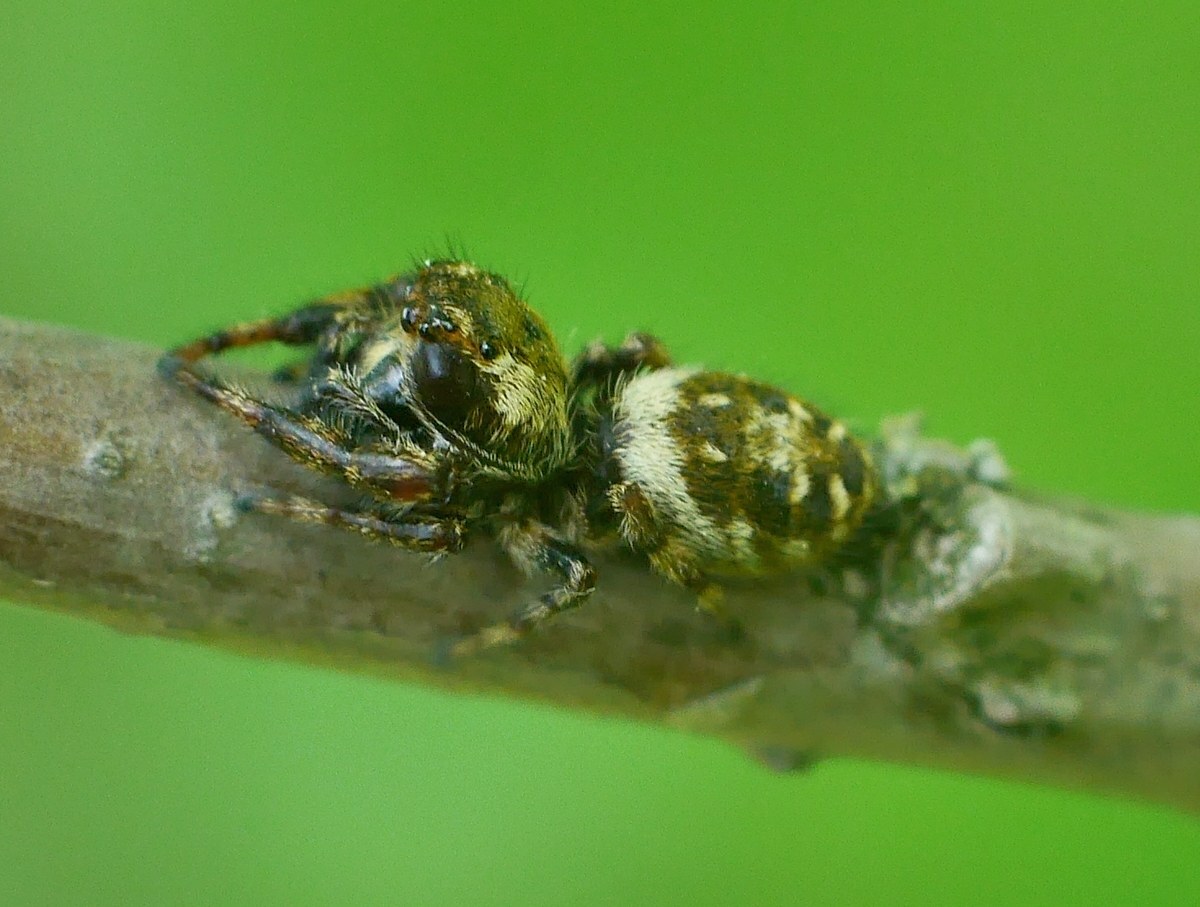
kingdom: Animalia
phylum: Arthropoda
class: Arachnida
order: Araneae
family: Salticidae
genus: Macaroeris
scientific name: Macaroeris nidicolens
